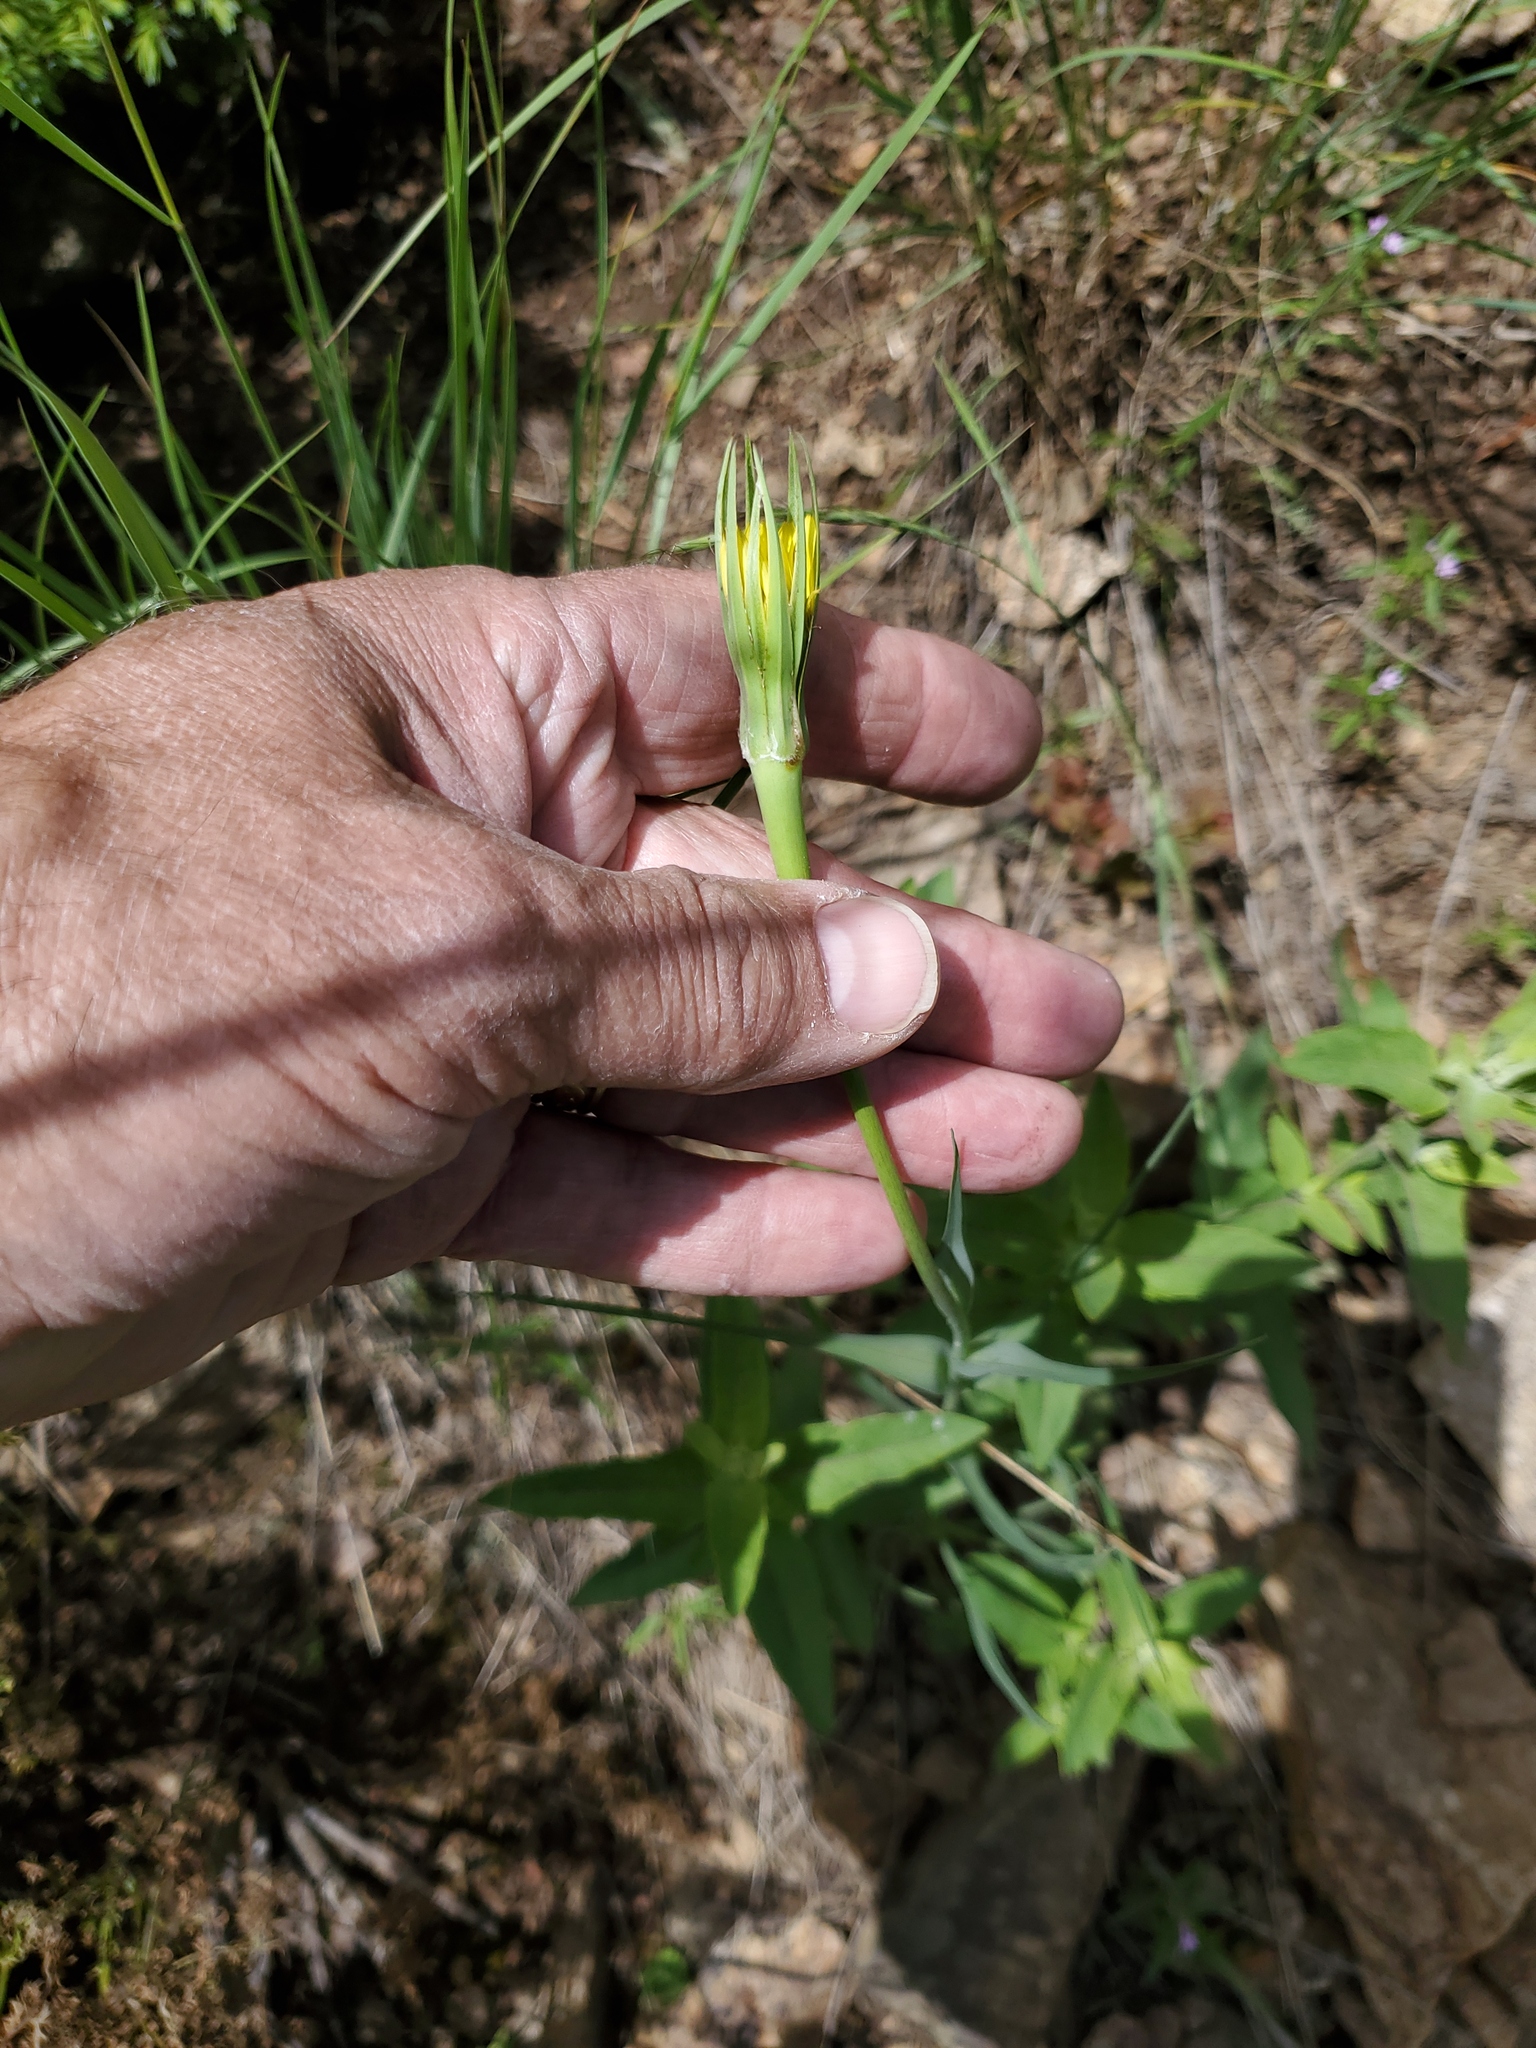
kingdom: Plantae
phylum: Tracheophyta
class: Magnoliopsida
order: Asterales
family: Asteraceae
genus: Tragopogon
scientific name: Tragopogon dubius
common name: Yellow salsify
